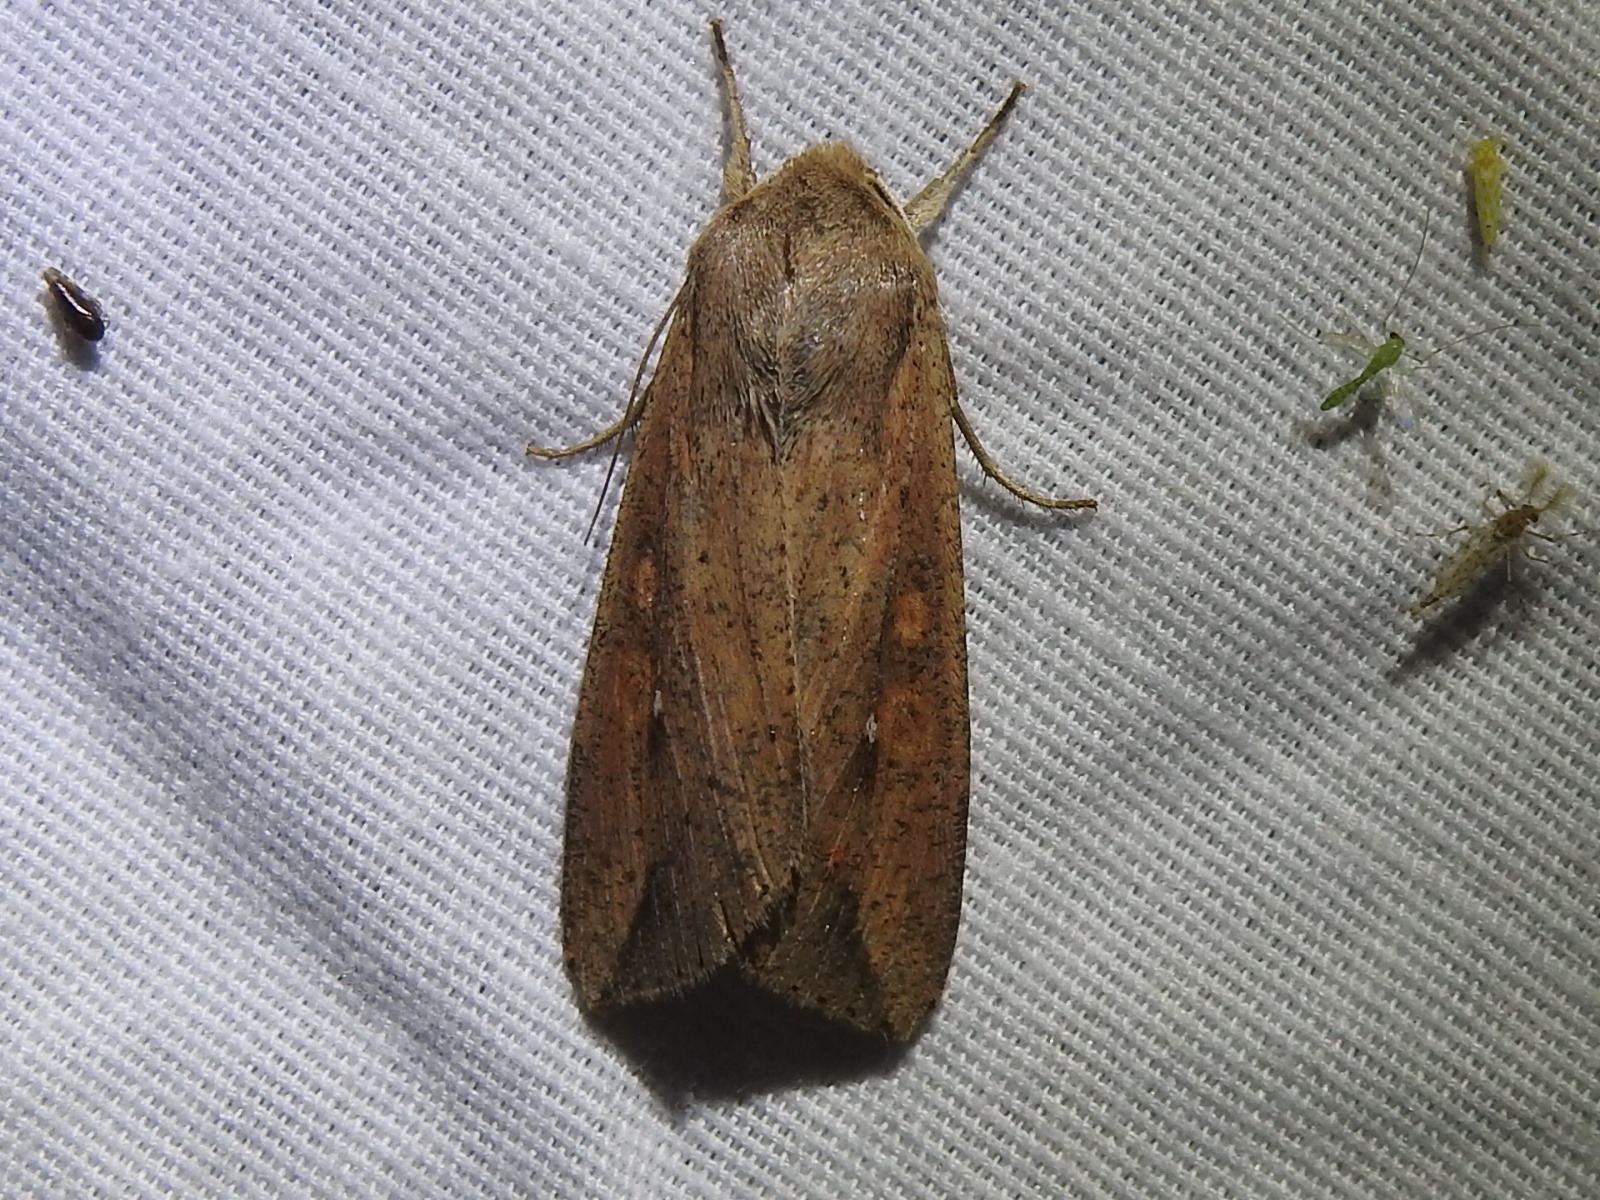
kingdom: Animalia
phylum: Arthropoda
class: Insecta
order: Lepidoptera
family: Noctuidae
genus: Mythimna
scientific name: Mythimna unipuncta
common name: White-speck
